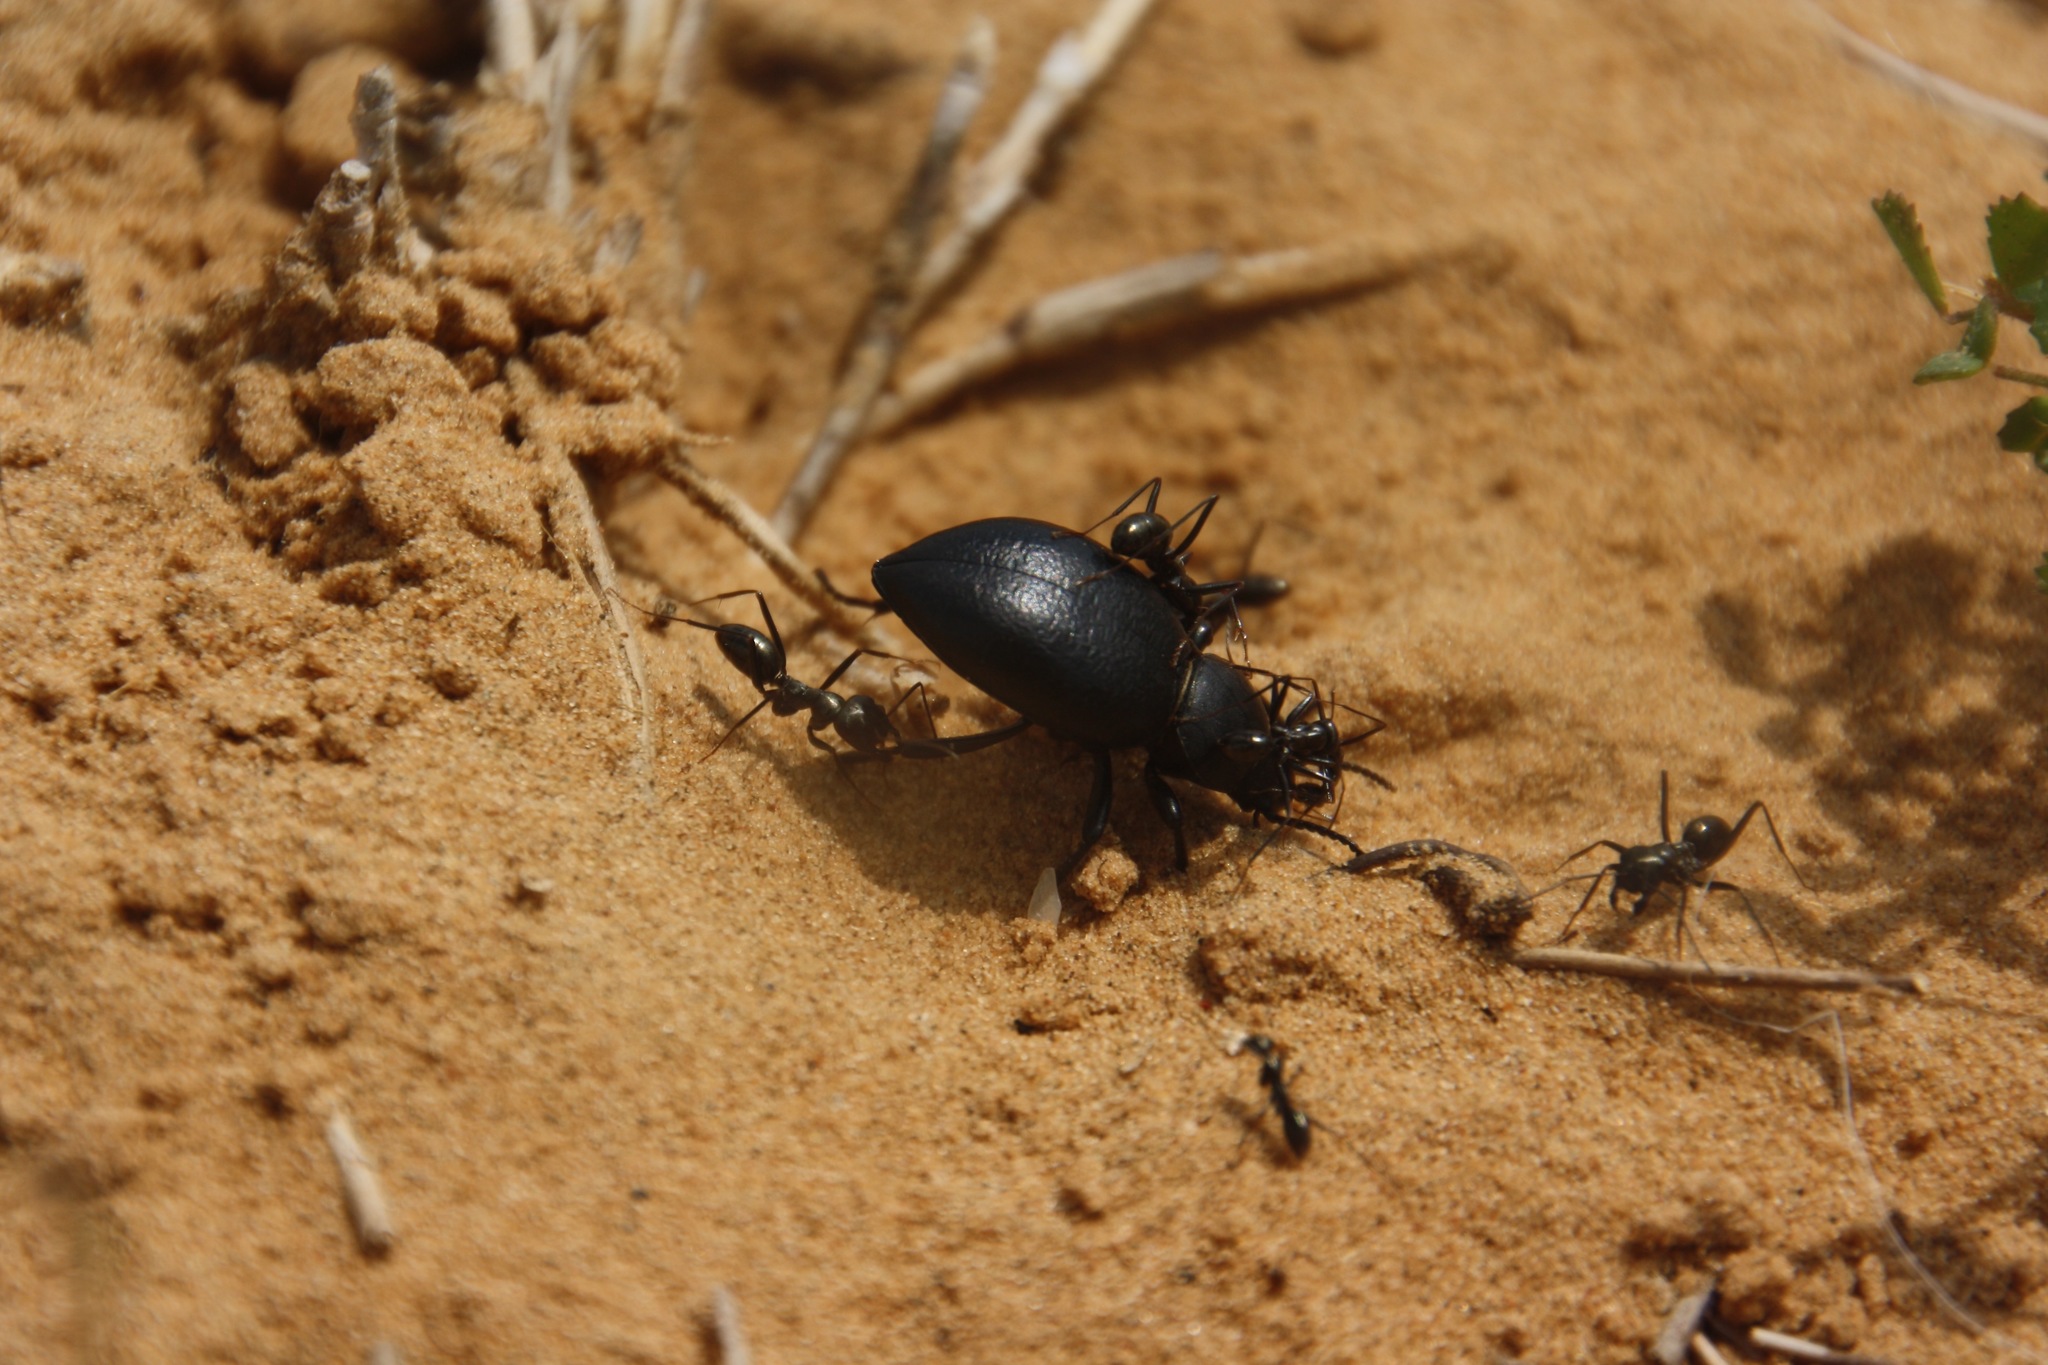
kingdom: Animalia
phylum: Arthropoda
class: Insecta
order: Hymenoptera
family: Formicidae
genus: Cataglyphis
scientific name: Cataglyphis aenescens
